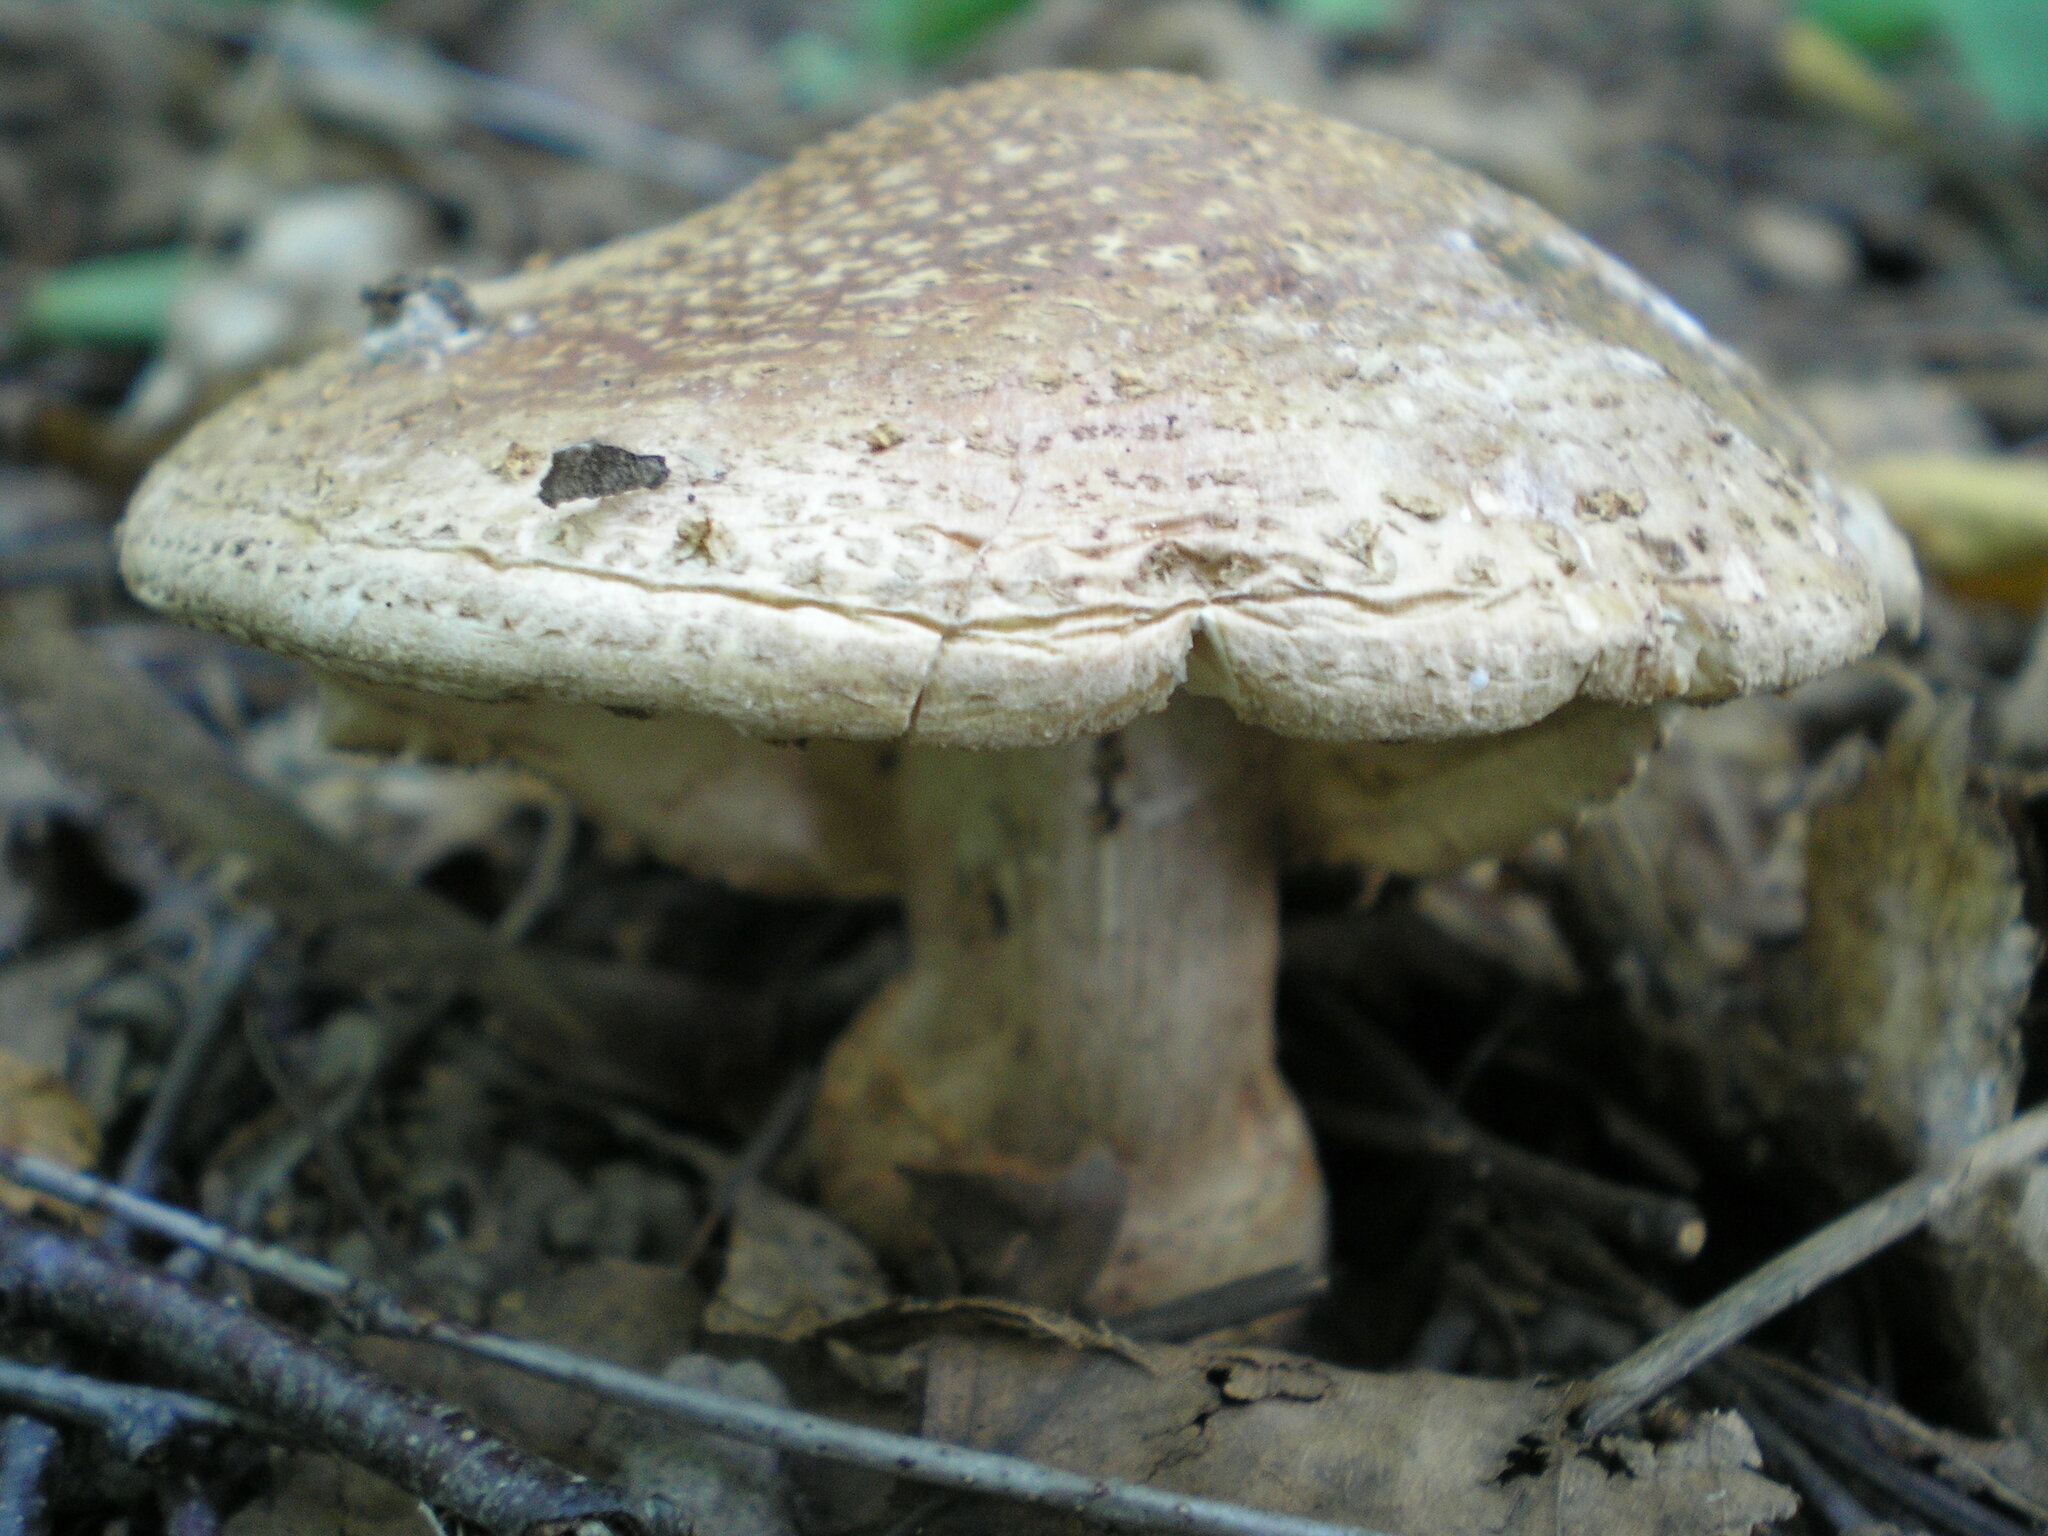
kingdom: Fungi
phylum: Basidiomycota
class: Agaricomycetes
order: Agaricales
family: Amanitaceae
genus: Amanita
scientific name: Amanita rubescens
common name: Blusher
